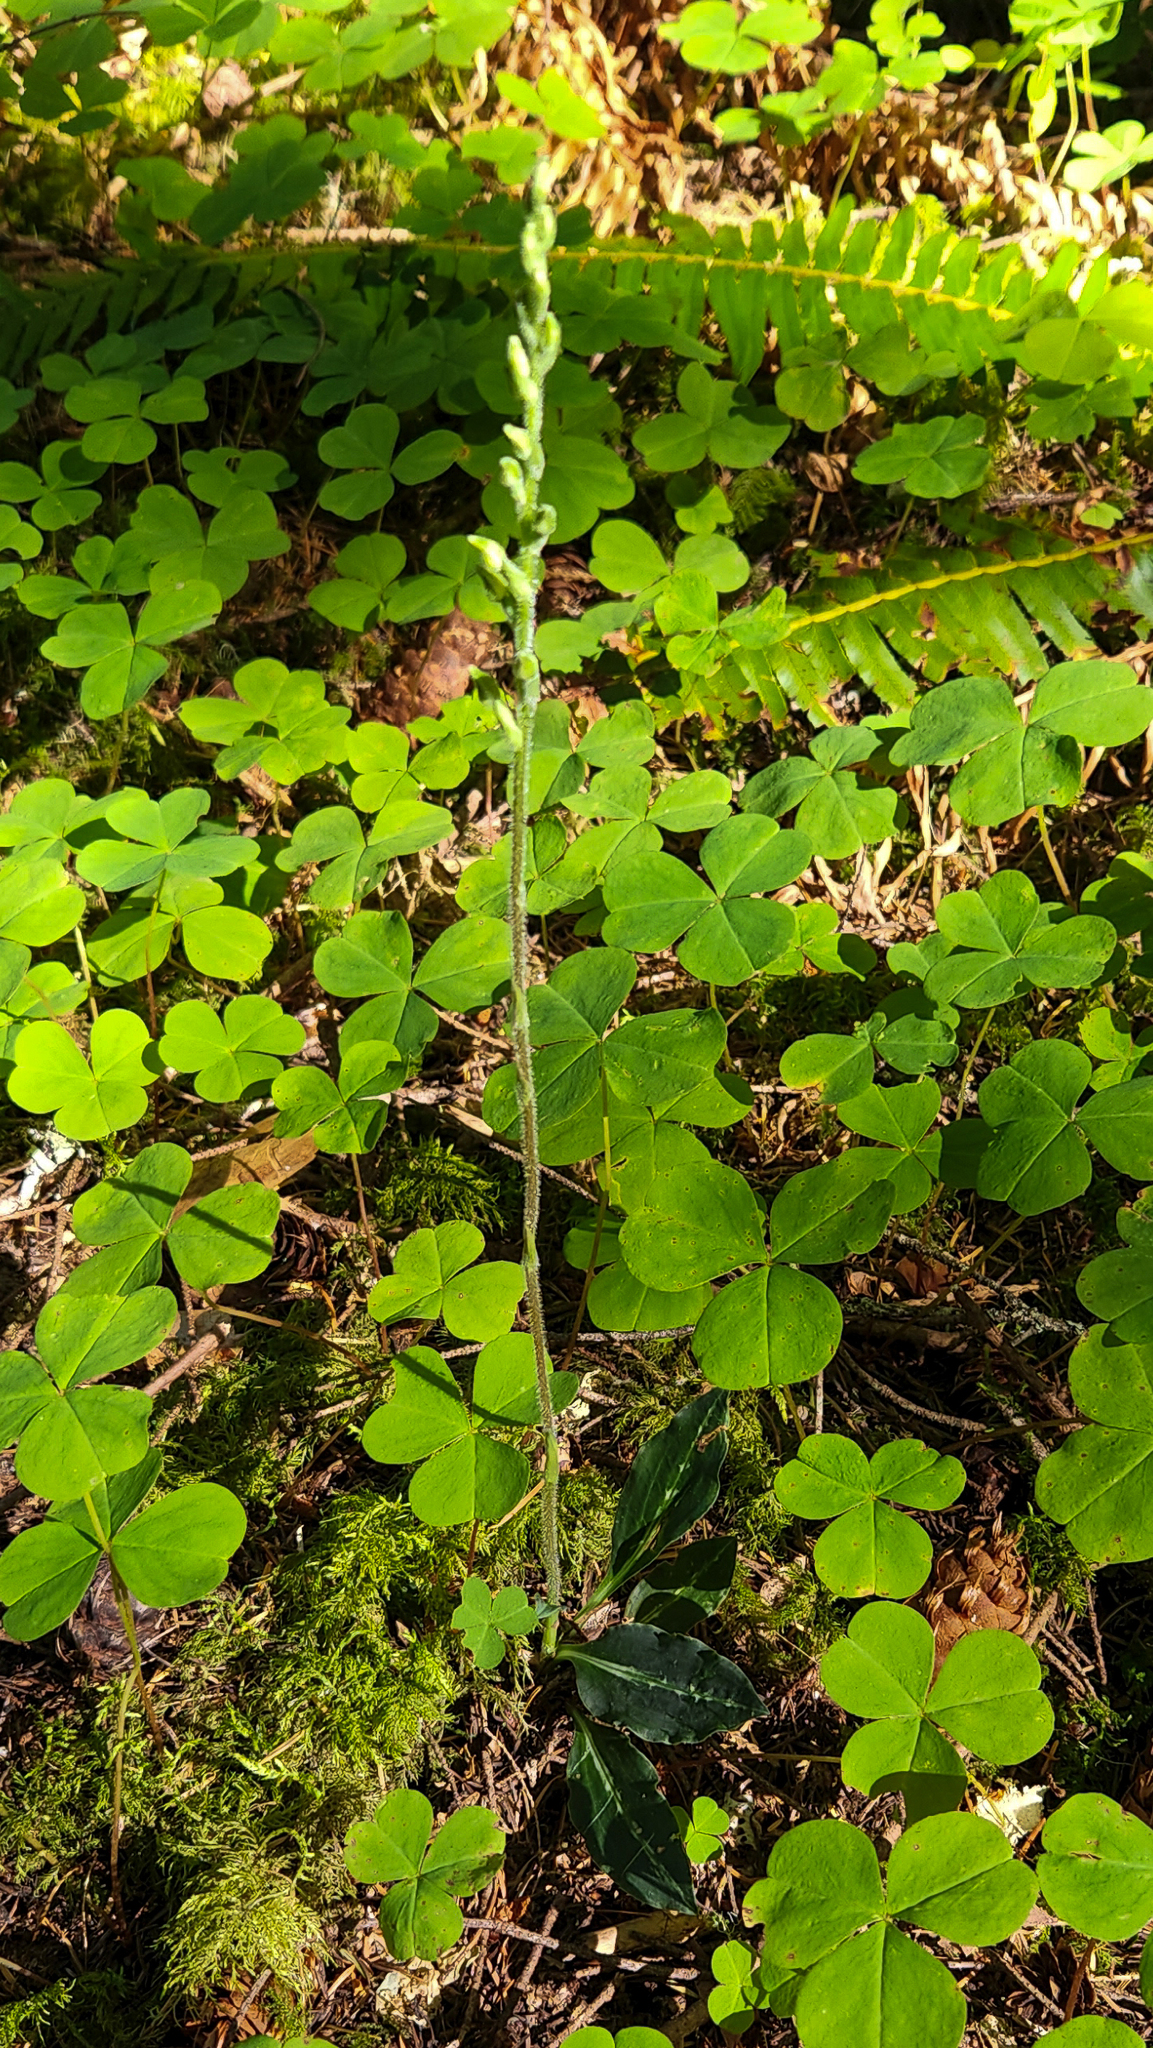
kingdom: Plantae
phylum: Tracheophyta
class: Liliopsida
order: Asparagales
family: Orchidaceae
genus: Goodyera
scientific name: Goodyera oblongifolia
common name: Giant rattlesnake-plantain
